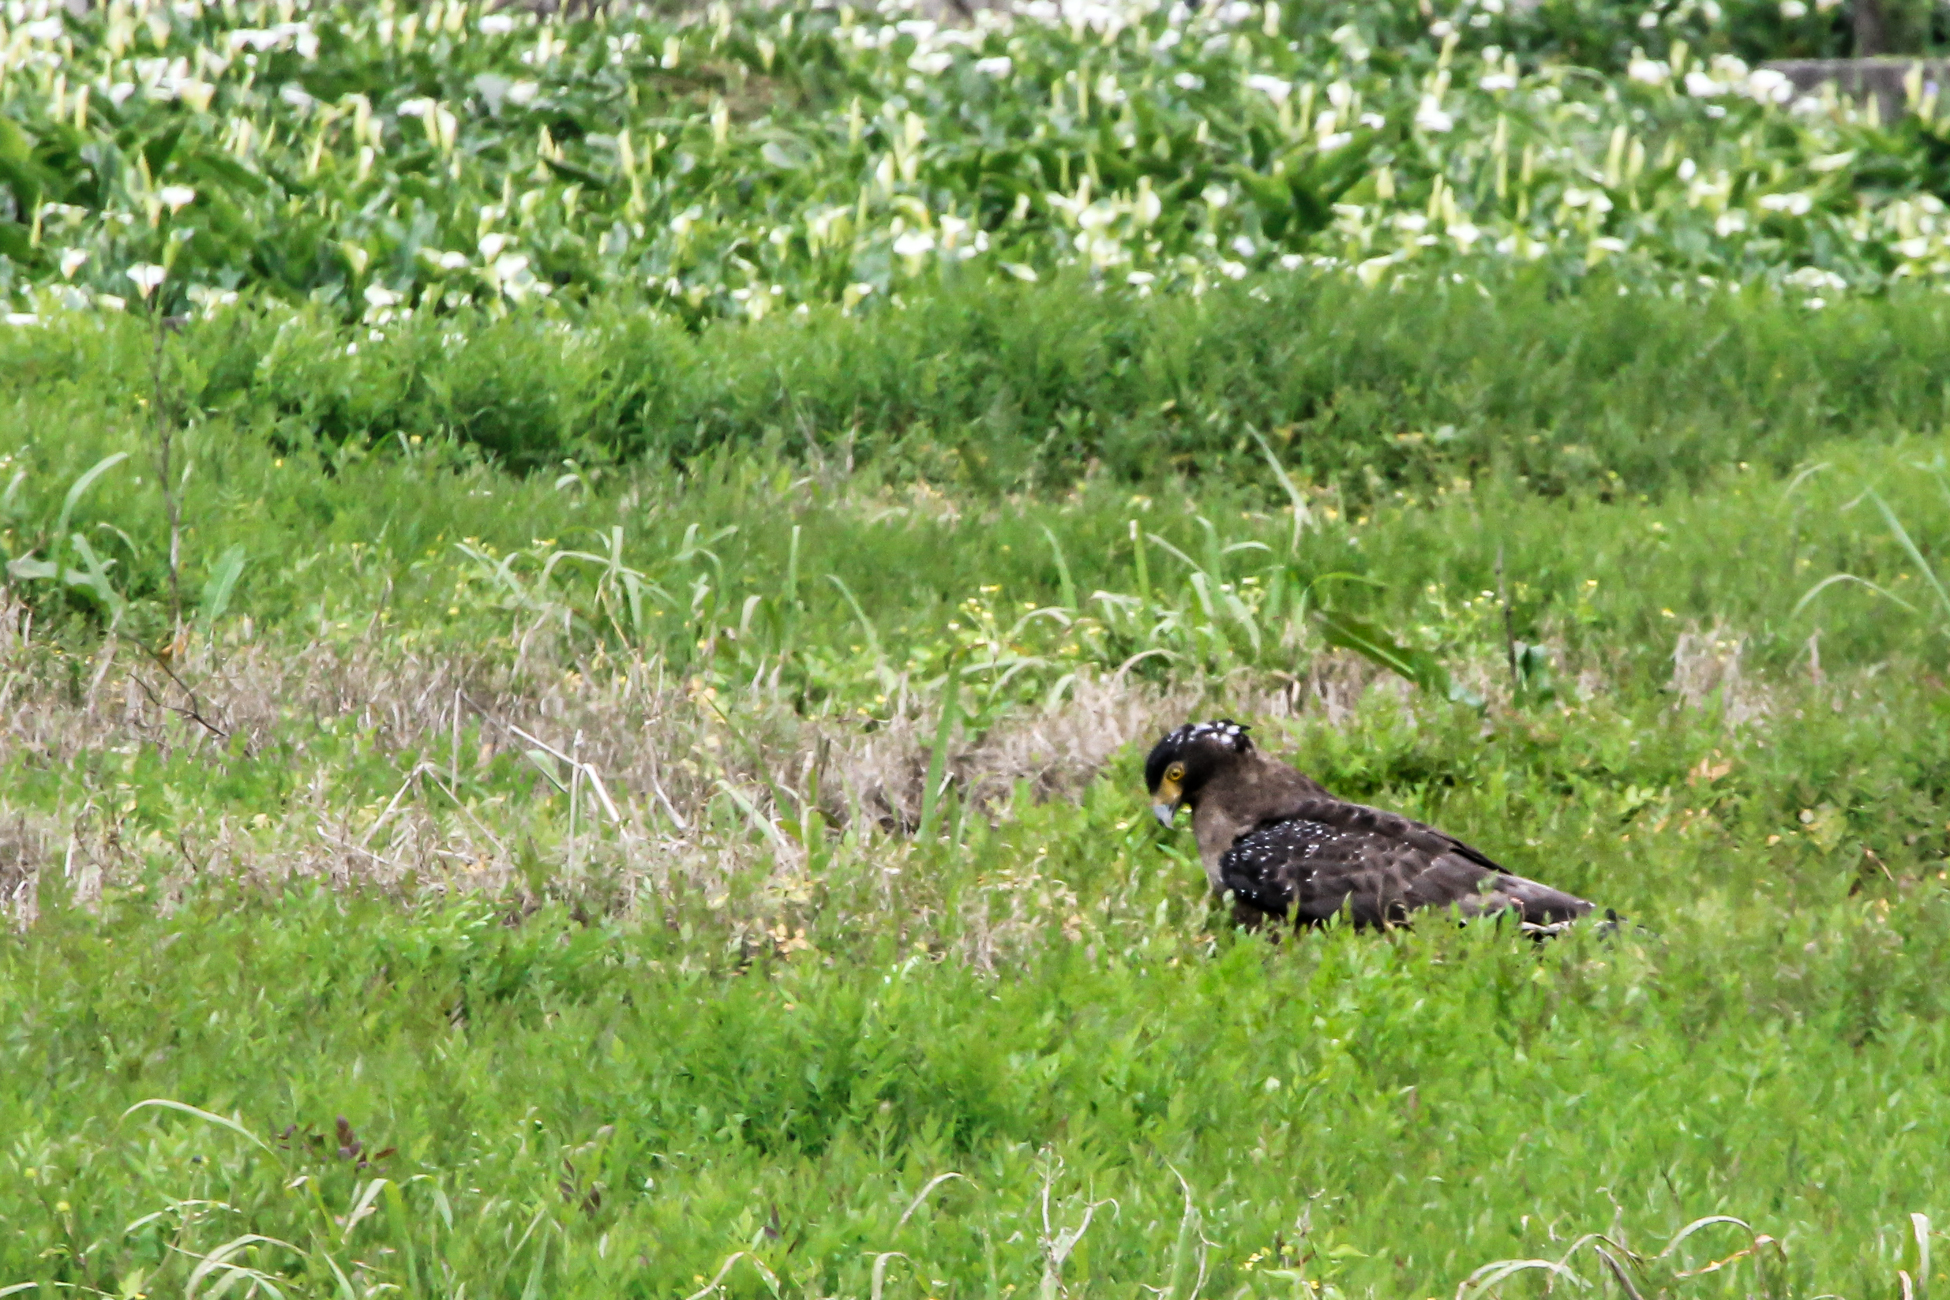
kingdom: Animalia
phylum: Chordata
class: Aves
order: Accipitriformes
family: Accipitridae
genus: Spilornis
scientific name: Spilornis cheela
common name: Crested serpent eagle
